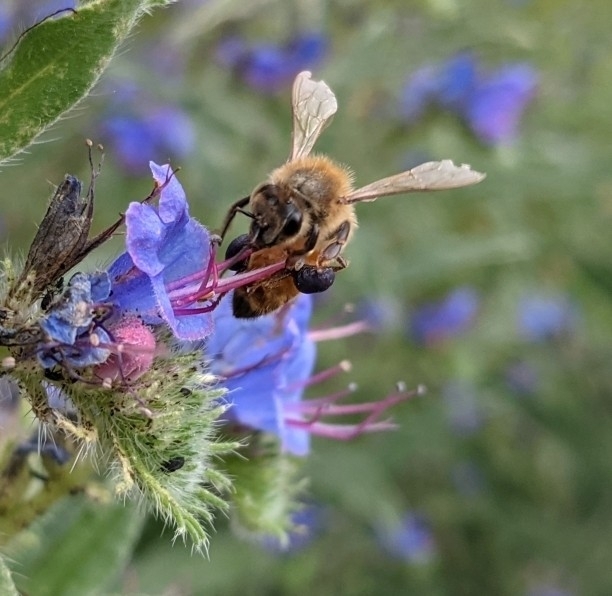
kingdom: Animalia
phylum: Arthropoda
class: Insecta
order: Hymenoptera
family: Apidae
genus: Apis
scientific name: Apis mellifera
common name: Honey bee
